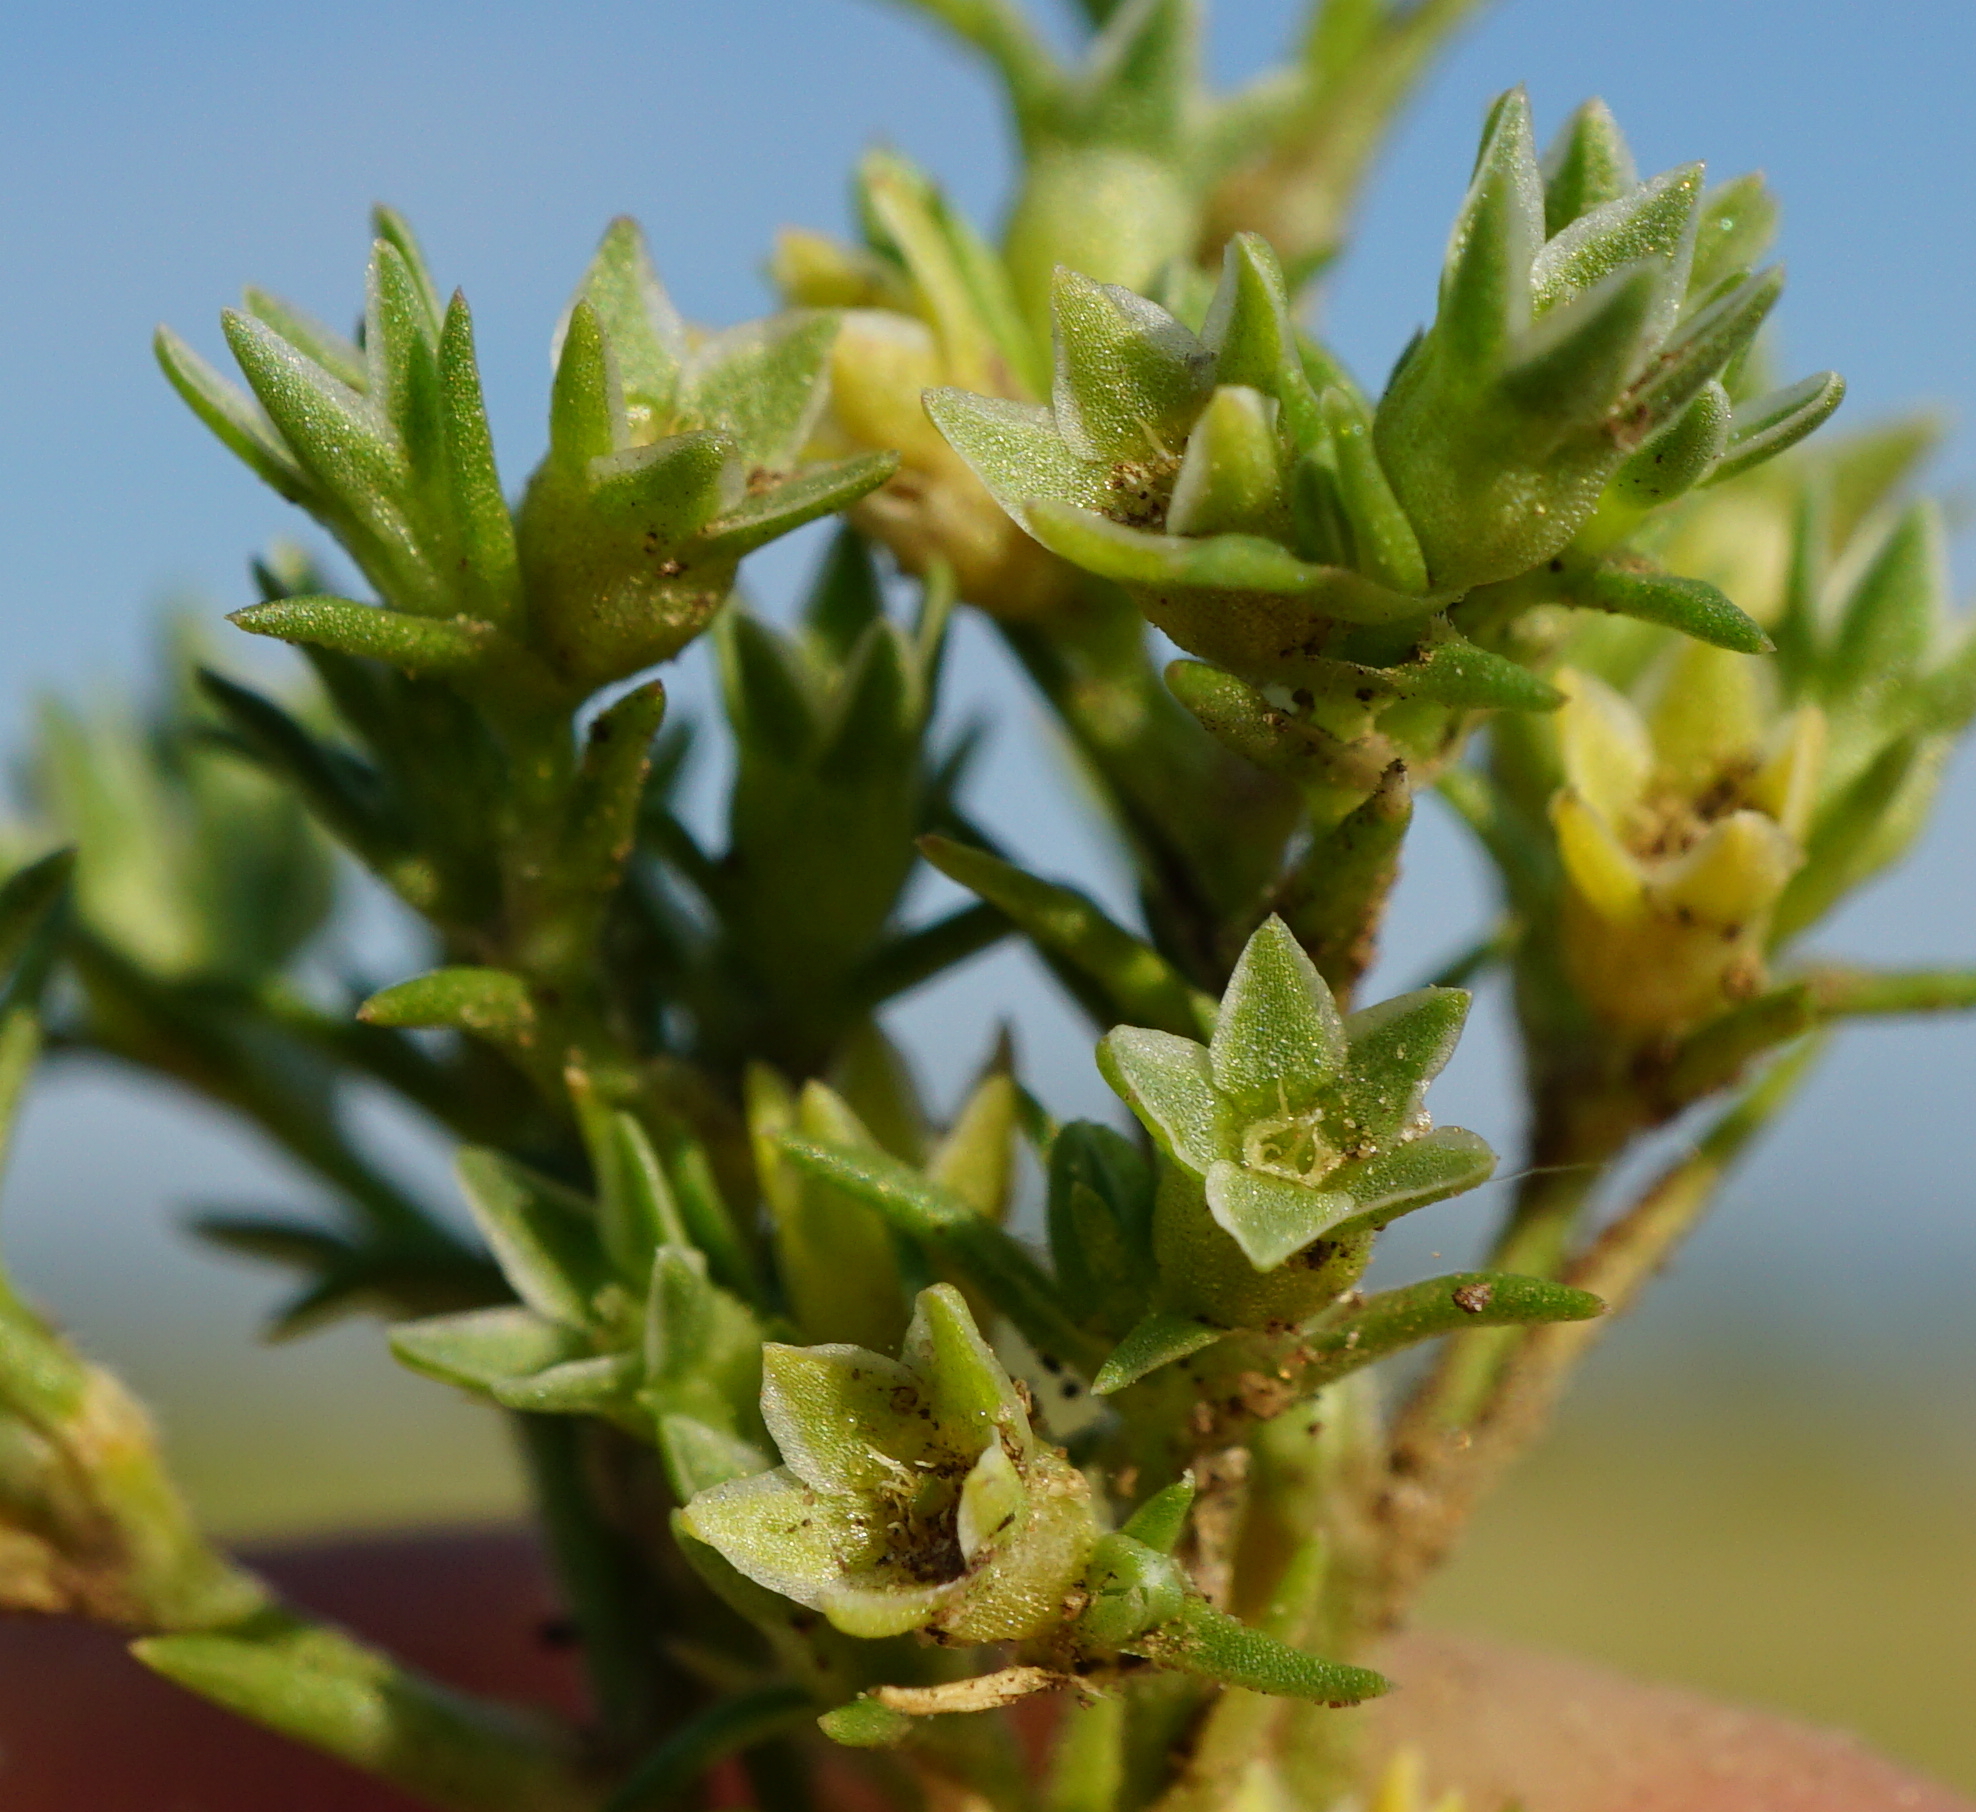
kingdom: Plantae
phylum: Tracheophyta
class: Magnoliopsida
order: Caryophyllales
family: Caryophyllaceae
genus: Scleranthus
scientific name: Scleranthus annuus
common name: Annual knawel
